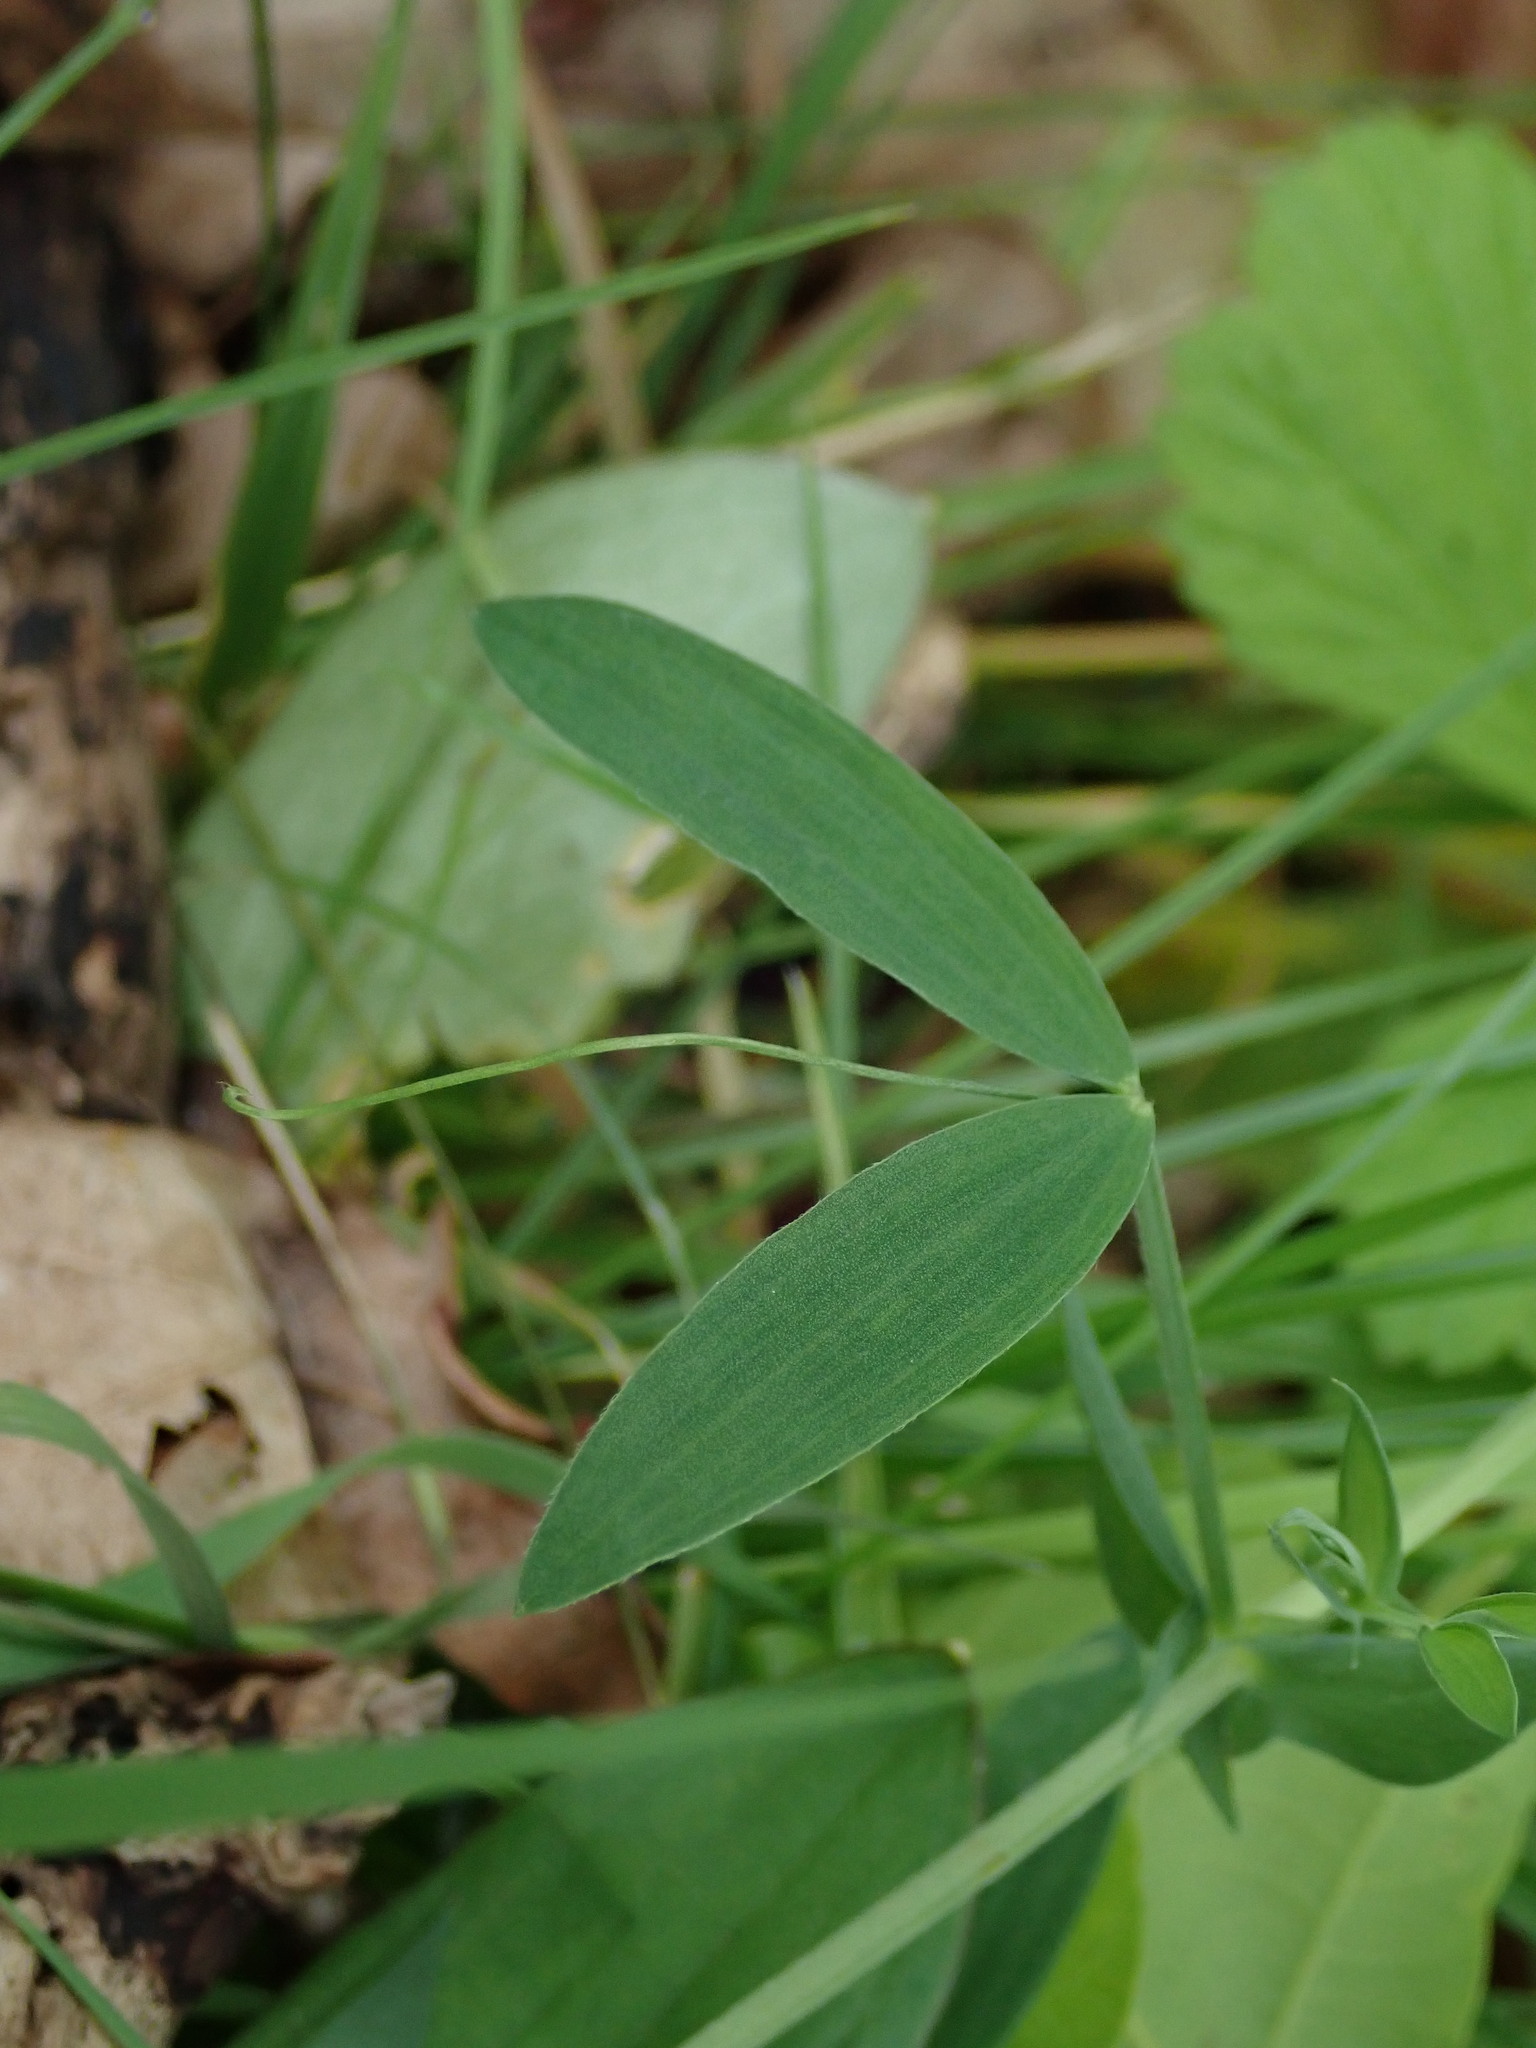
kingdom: Plantae
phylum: Tracheophyta
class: Magnoliopsida
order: Fabales
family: Fabaceae
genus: Lathyrus
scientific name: Lathyrus pratensis
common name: Meadow vetchling
